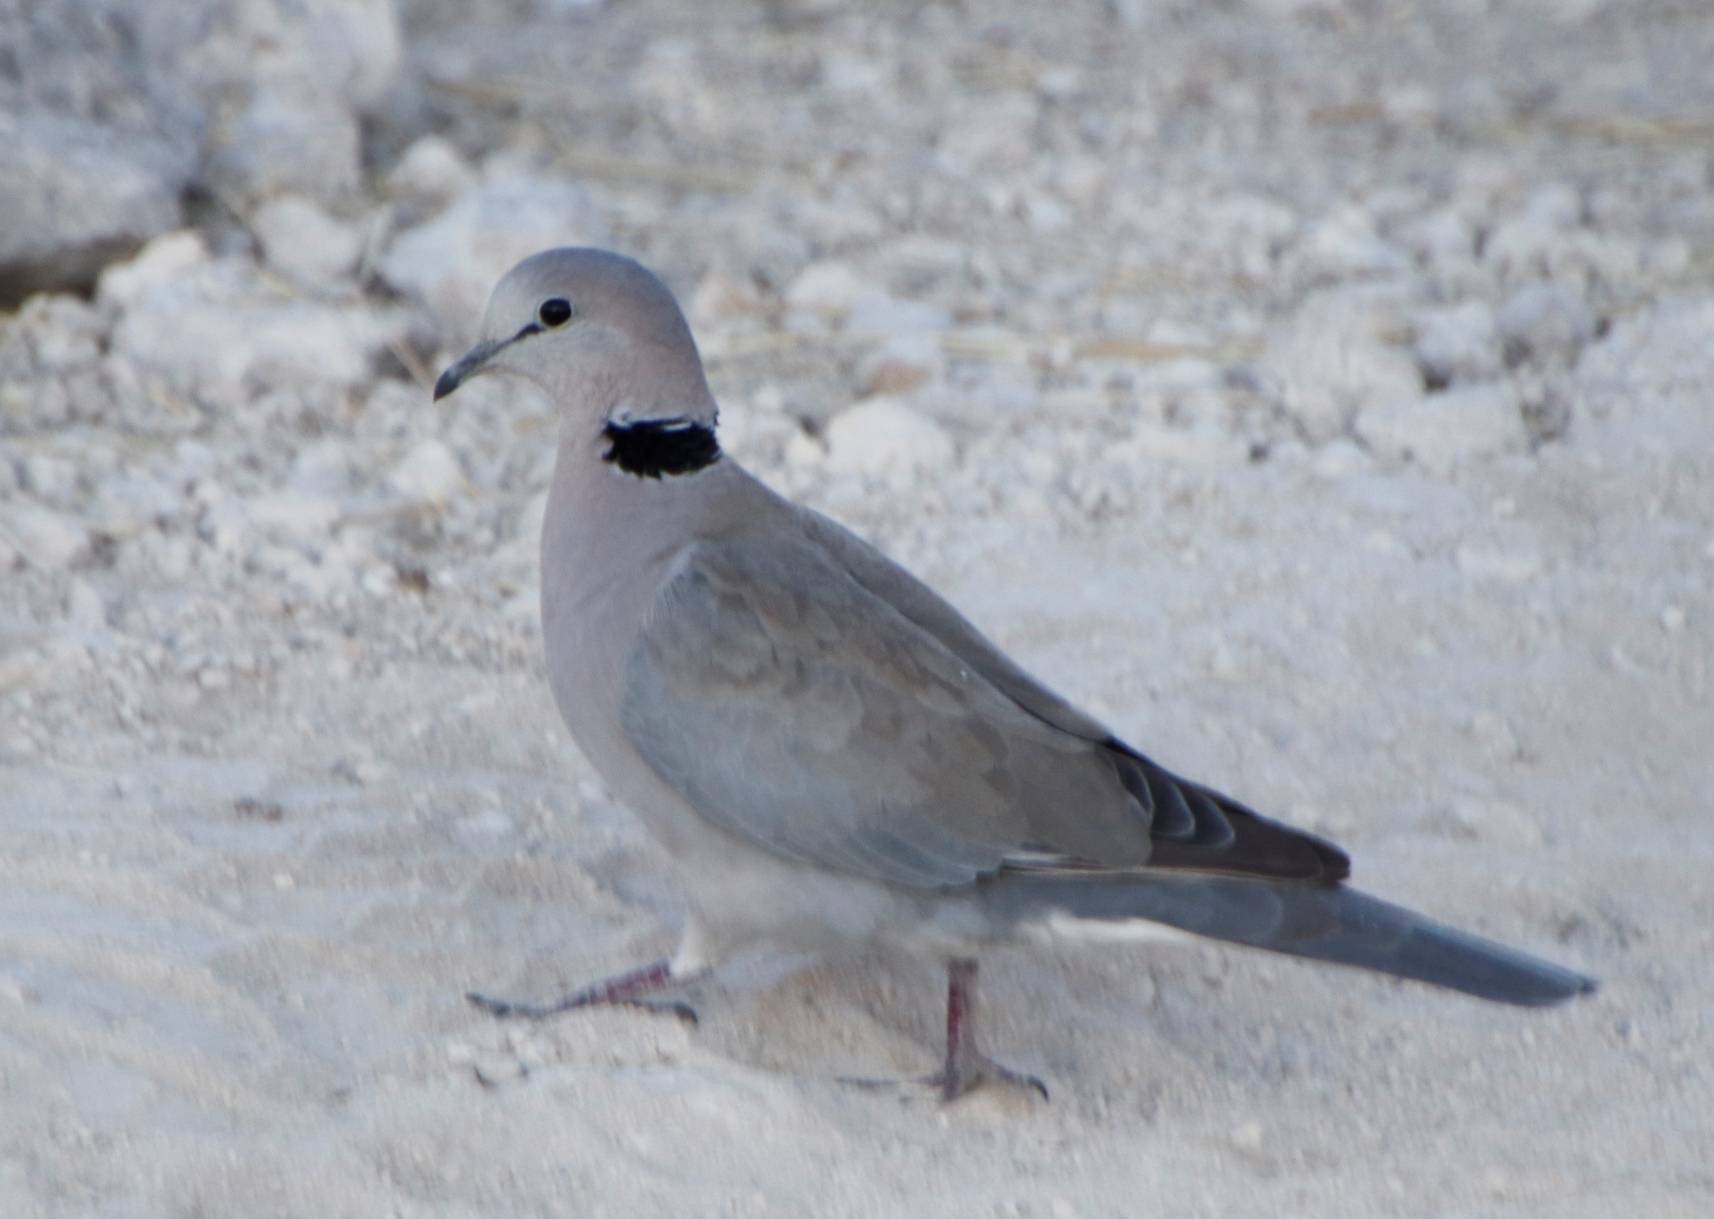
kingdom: Animalia
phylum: Chordata
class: Aves
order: Columbiformes
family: Columbidae
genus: Streptopelia
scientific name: Streptopelia capicola
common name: Ring-necked dove
